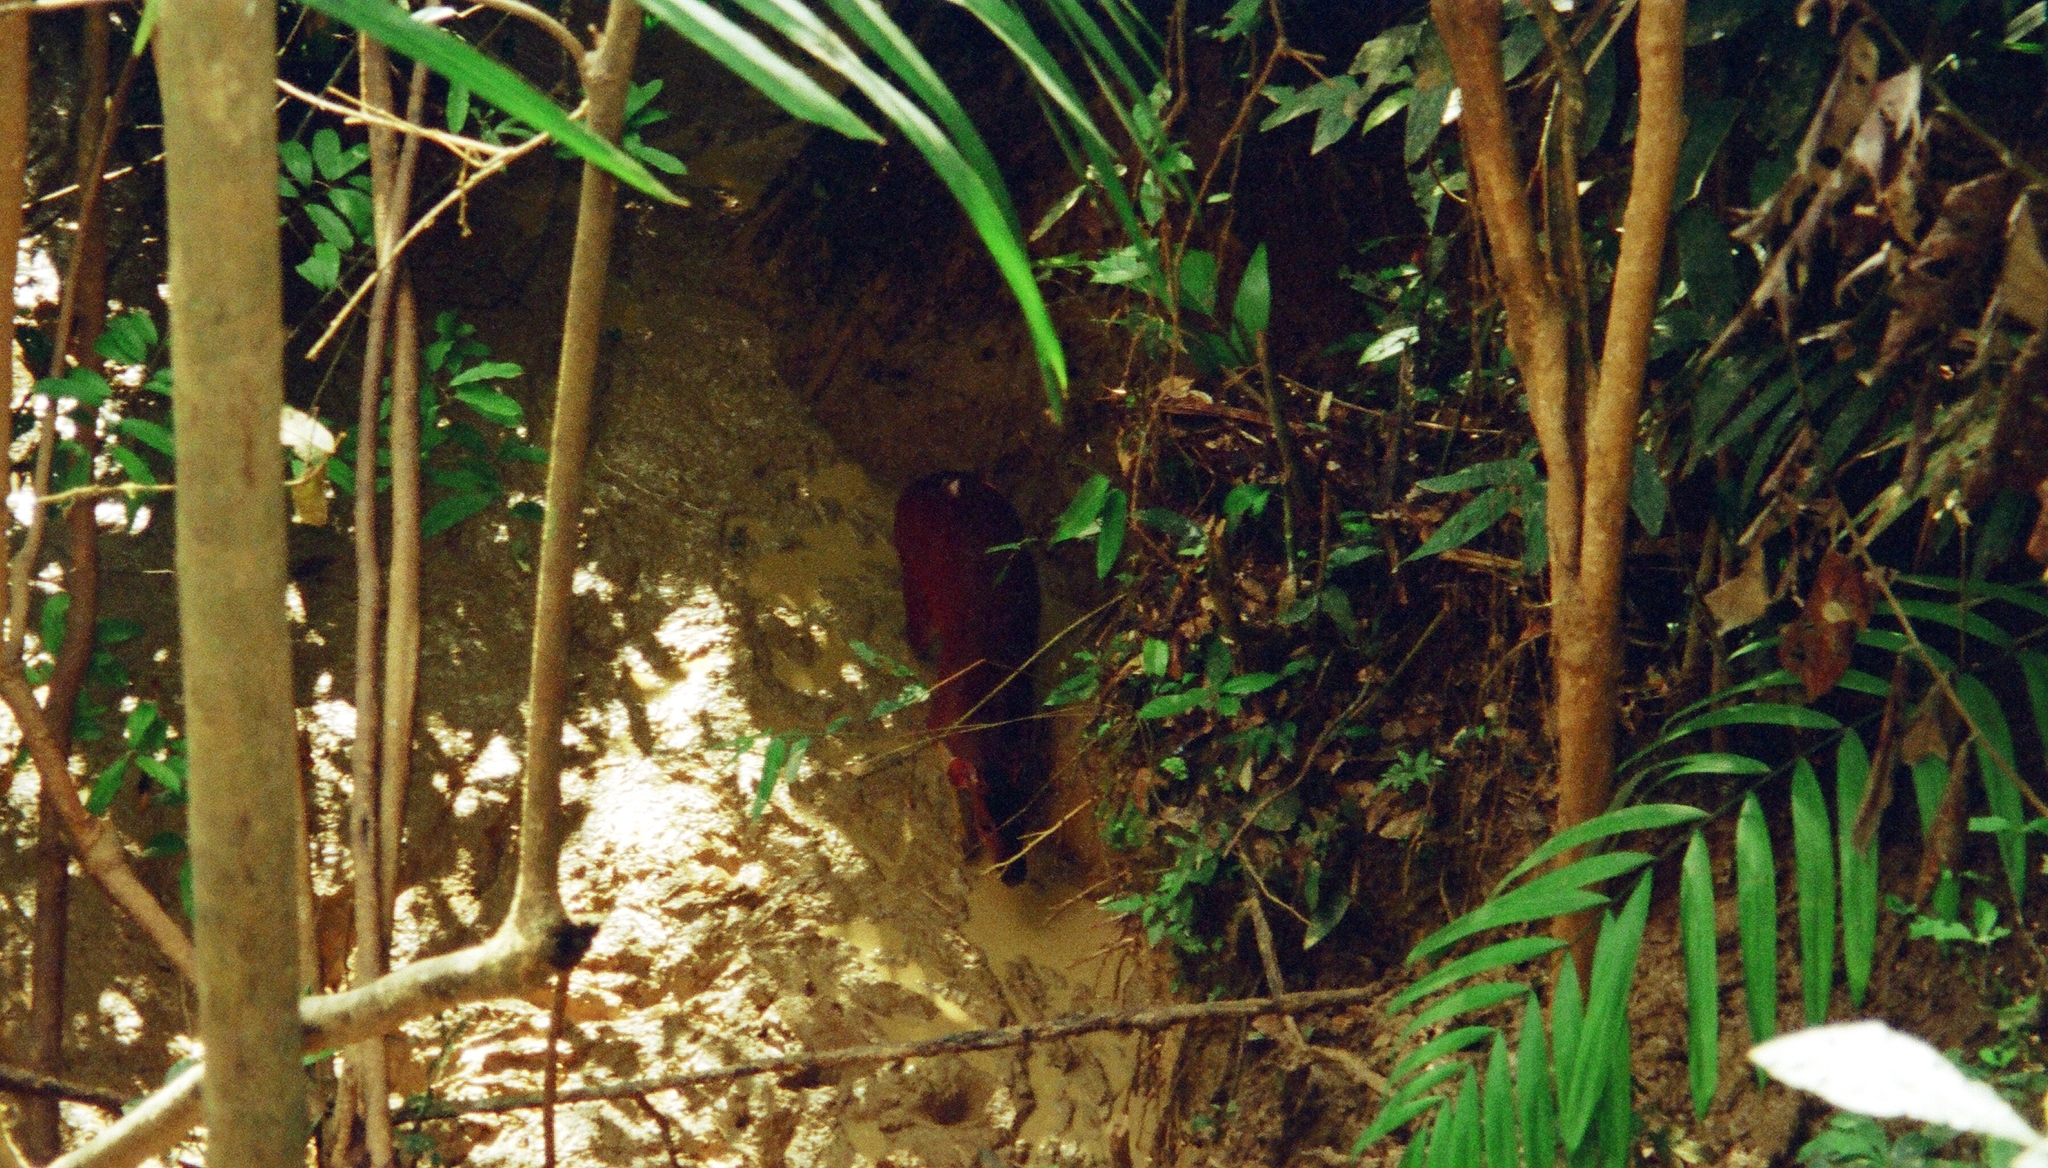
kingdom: Animalia
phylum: Chordata
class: Mammalia
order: Artiodactyla
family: Cervidae
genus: Mazama
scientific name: Mazama americana
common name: Red brocket
